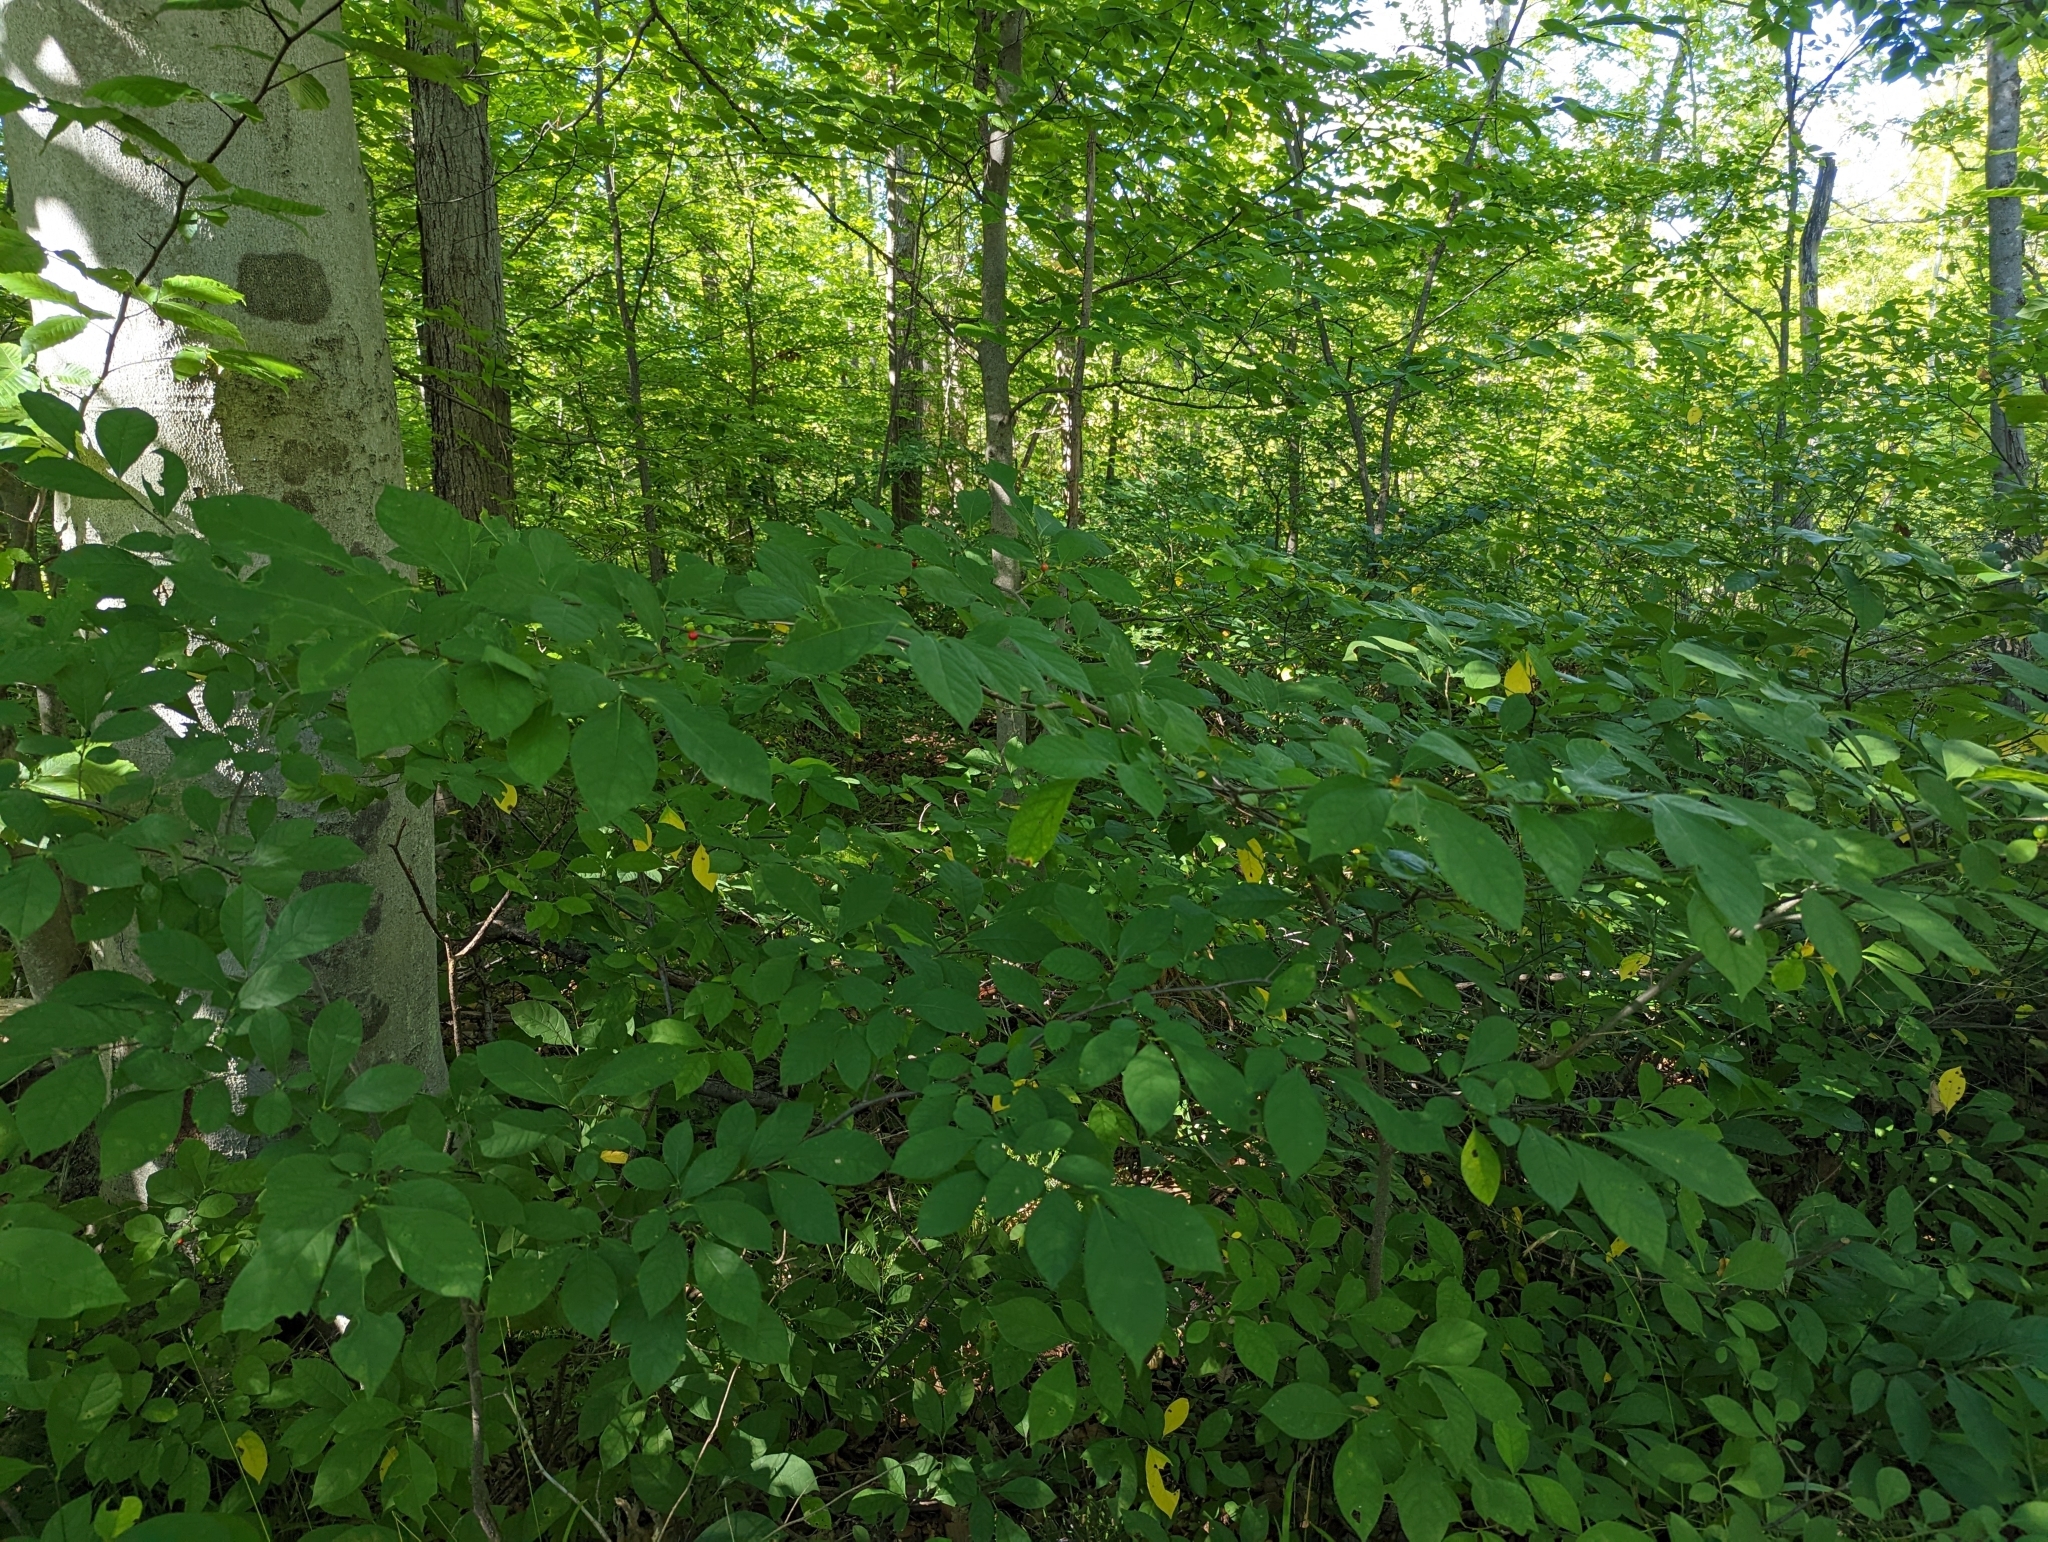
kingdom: Plantae
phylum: Tracheophyta
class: Magnoliopsida
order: Laurales
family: Lauraceae
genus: Lindera
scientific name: Lindera benzoin
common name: Spicebush
